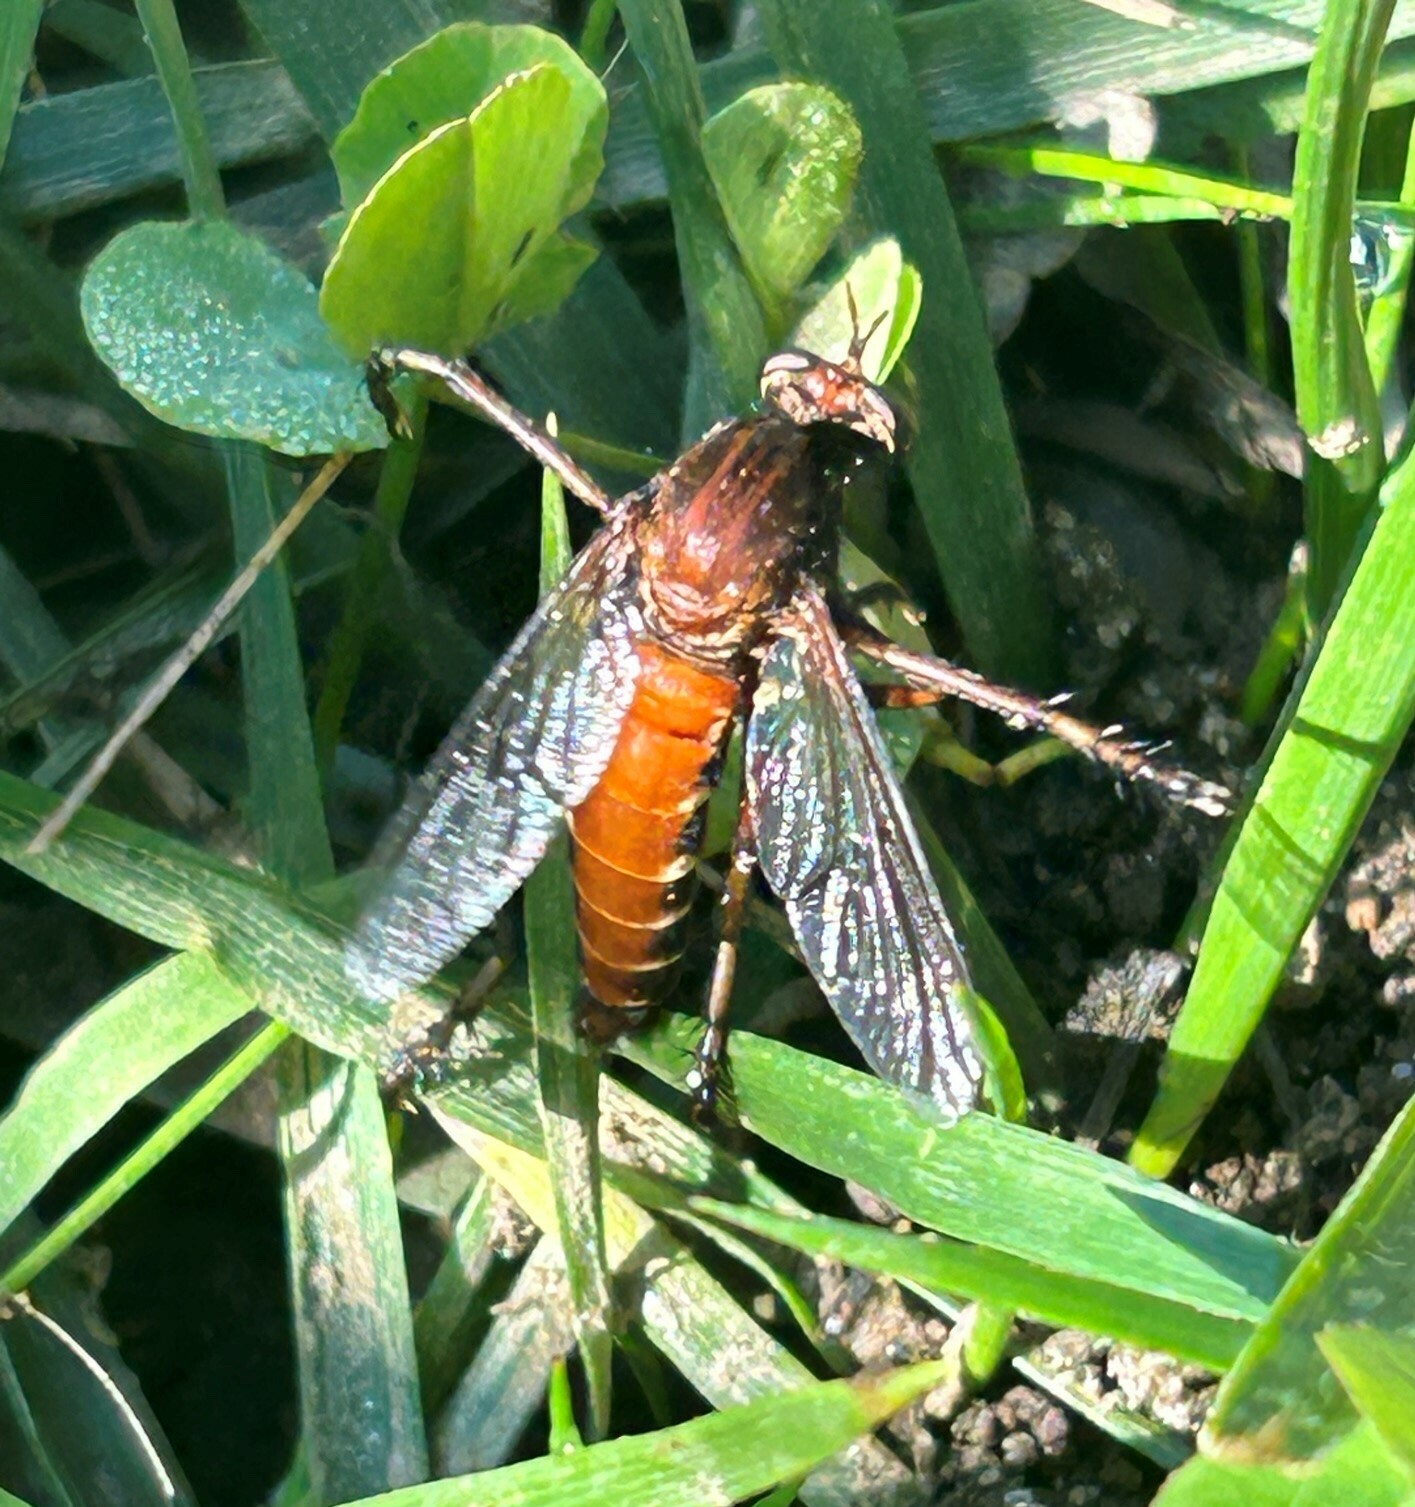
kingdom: Animalia
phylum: Arthropoda
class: Insecta
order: Diptera
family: Asilidae
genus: Diogmites
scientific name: Diogmites basalis
